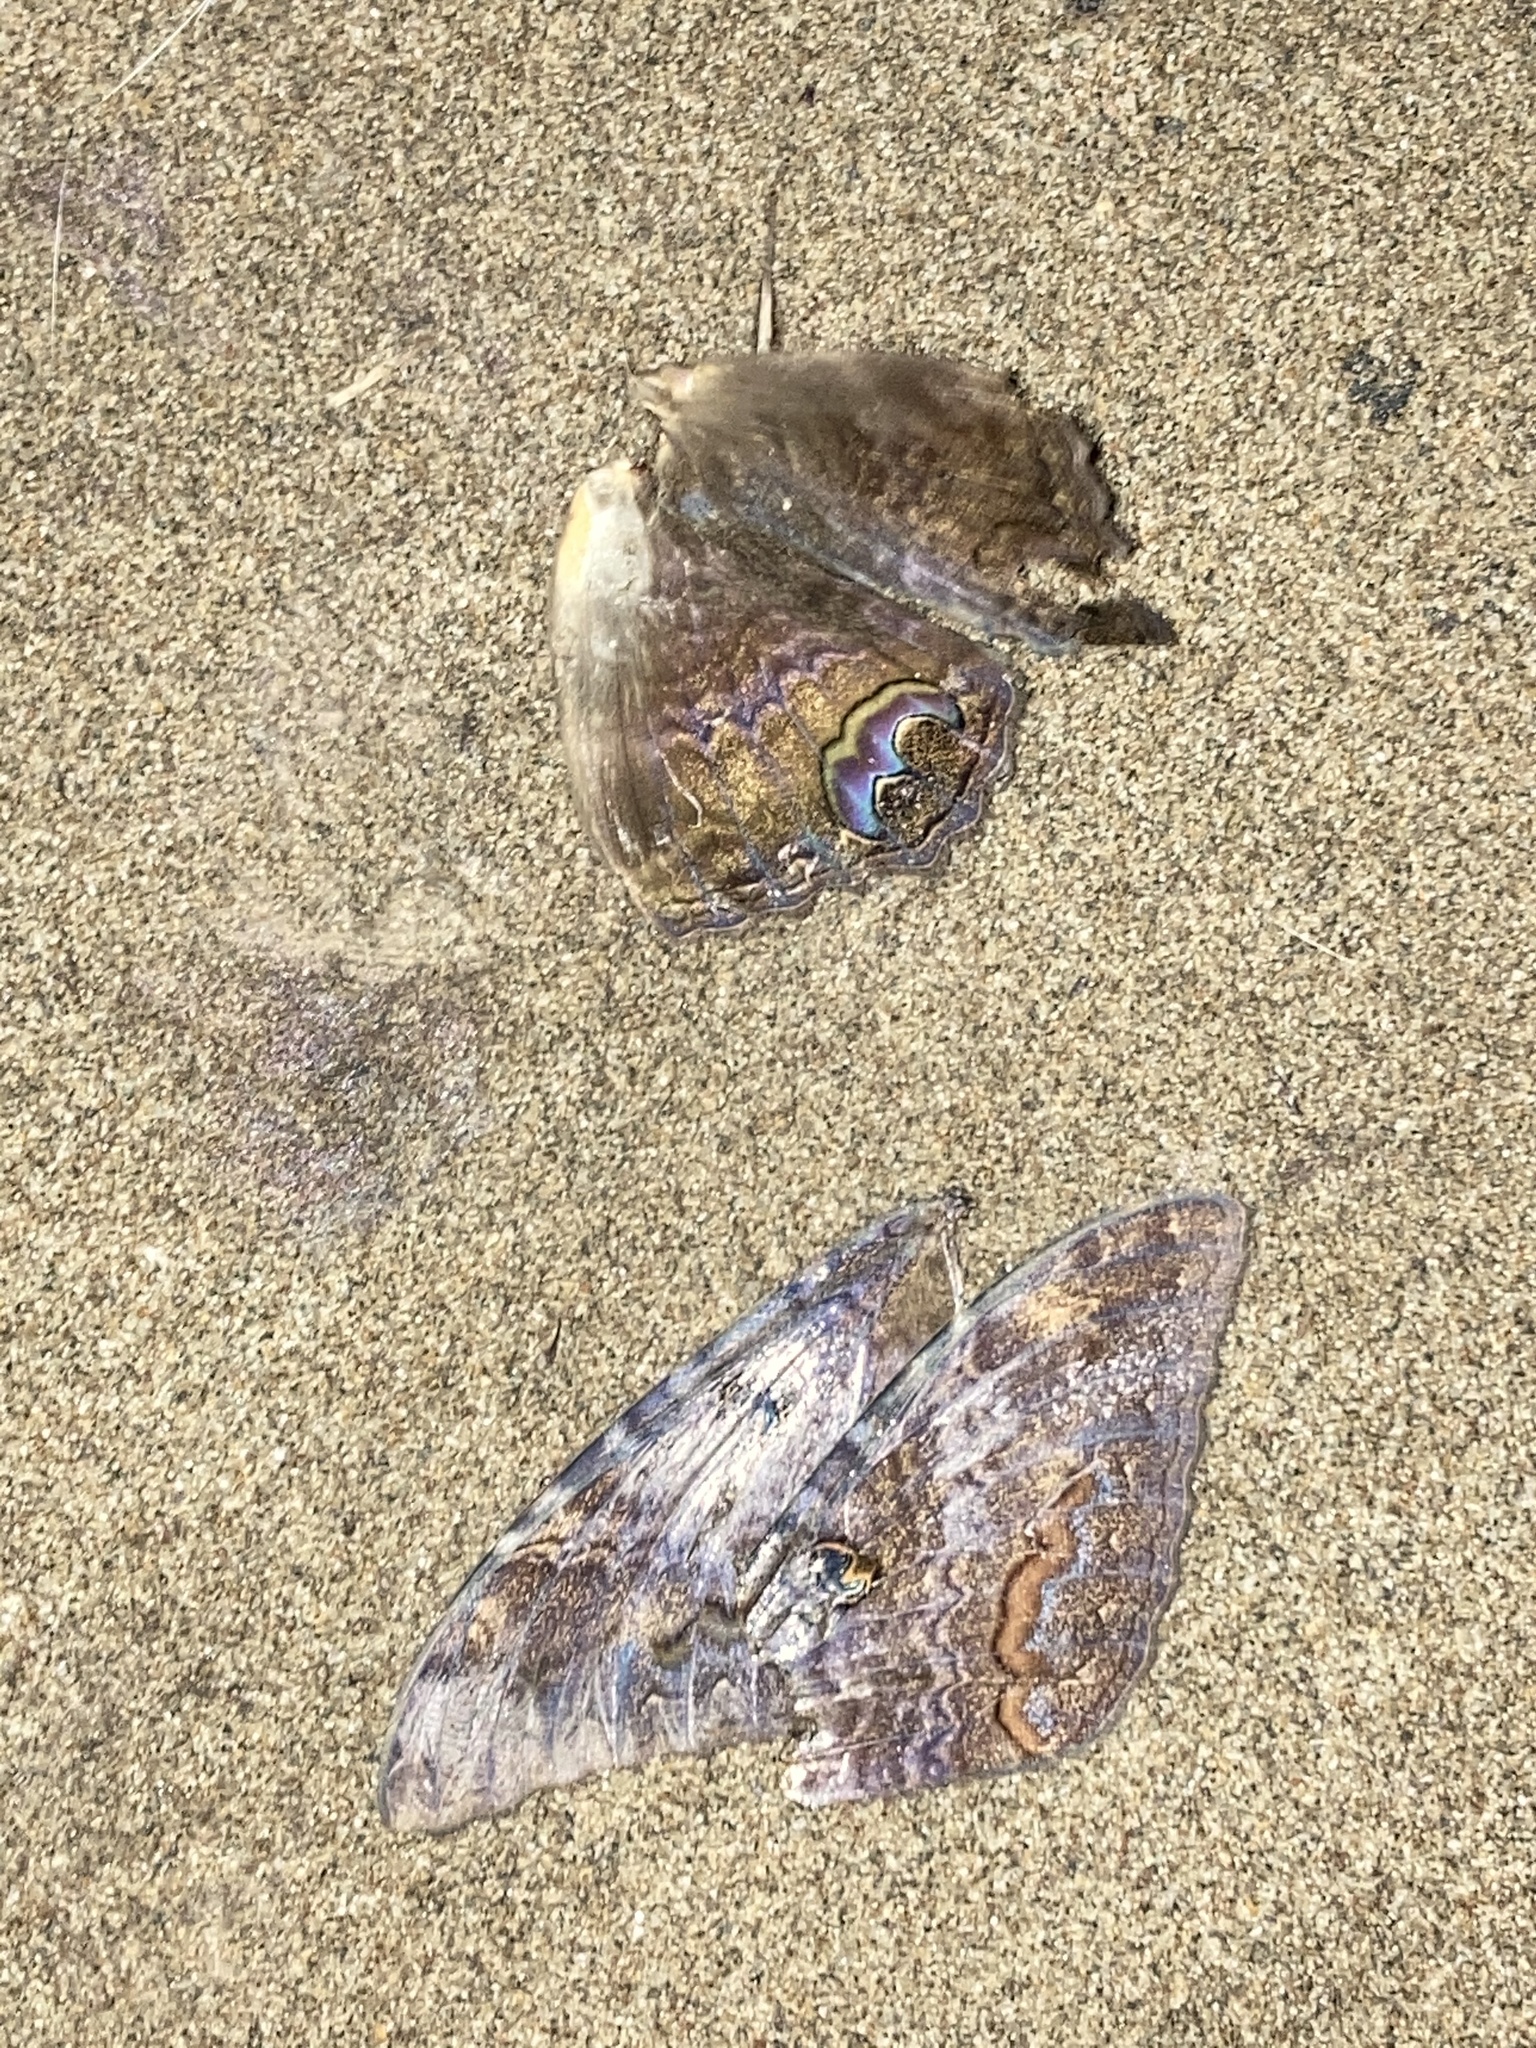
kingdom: Animalia
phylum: Arthropoda
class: Insecta
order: Lepidoptera
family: Erebidae
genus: Ascalapha
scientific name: Ascalapha odorata
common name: Black witch
